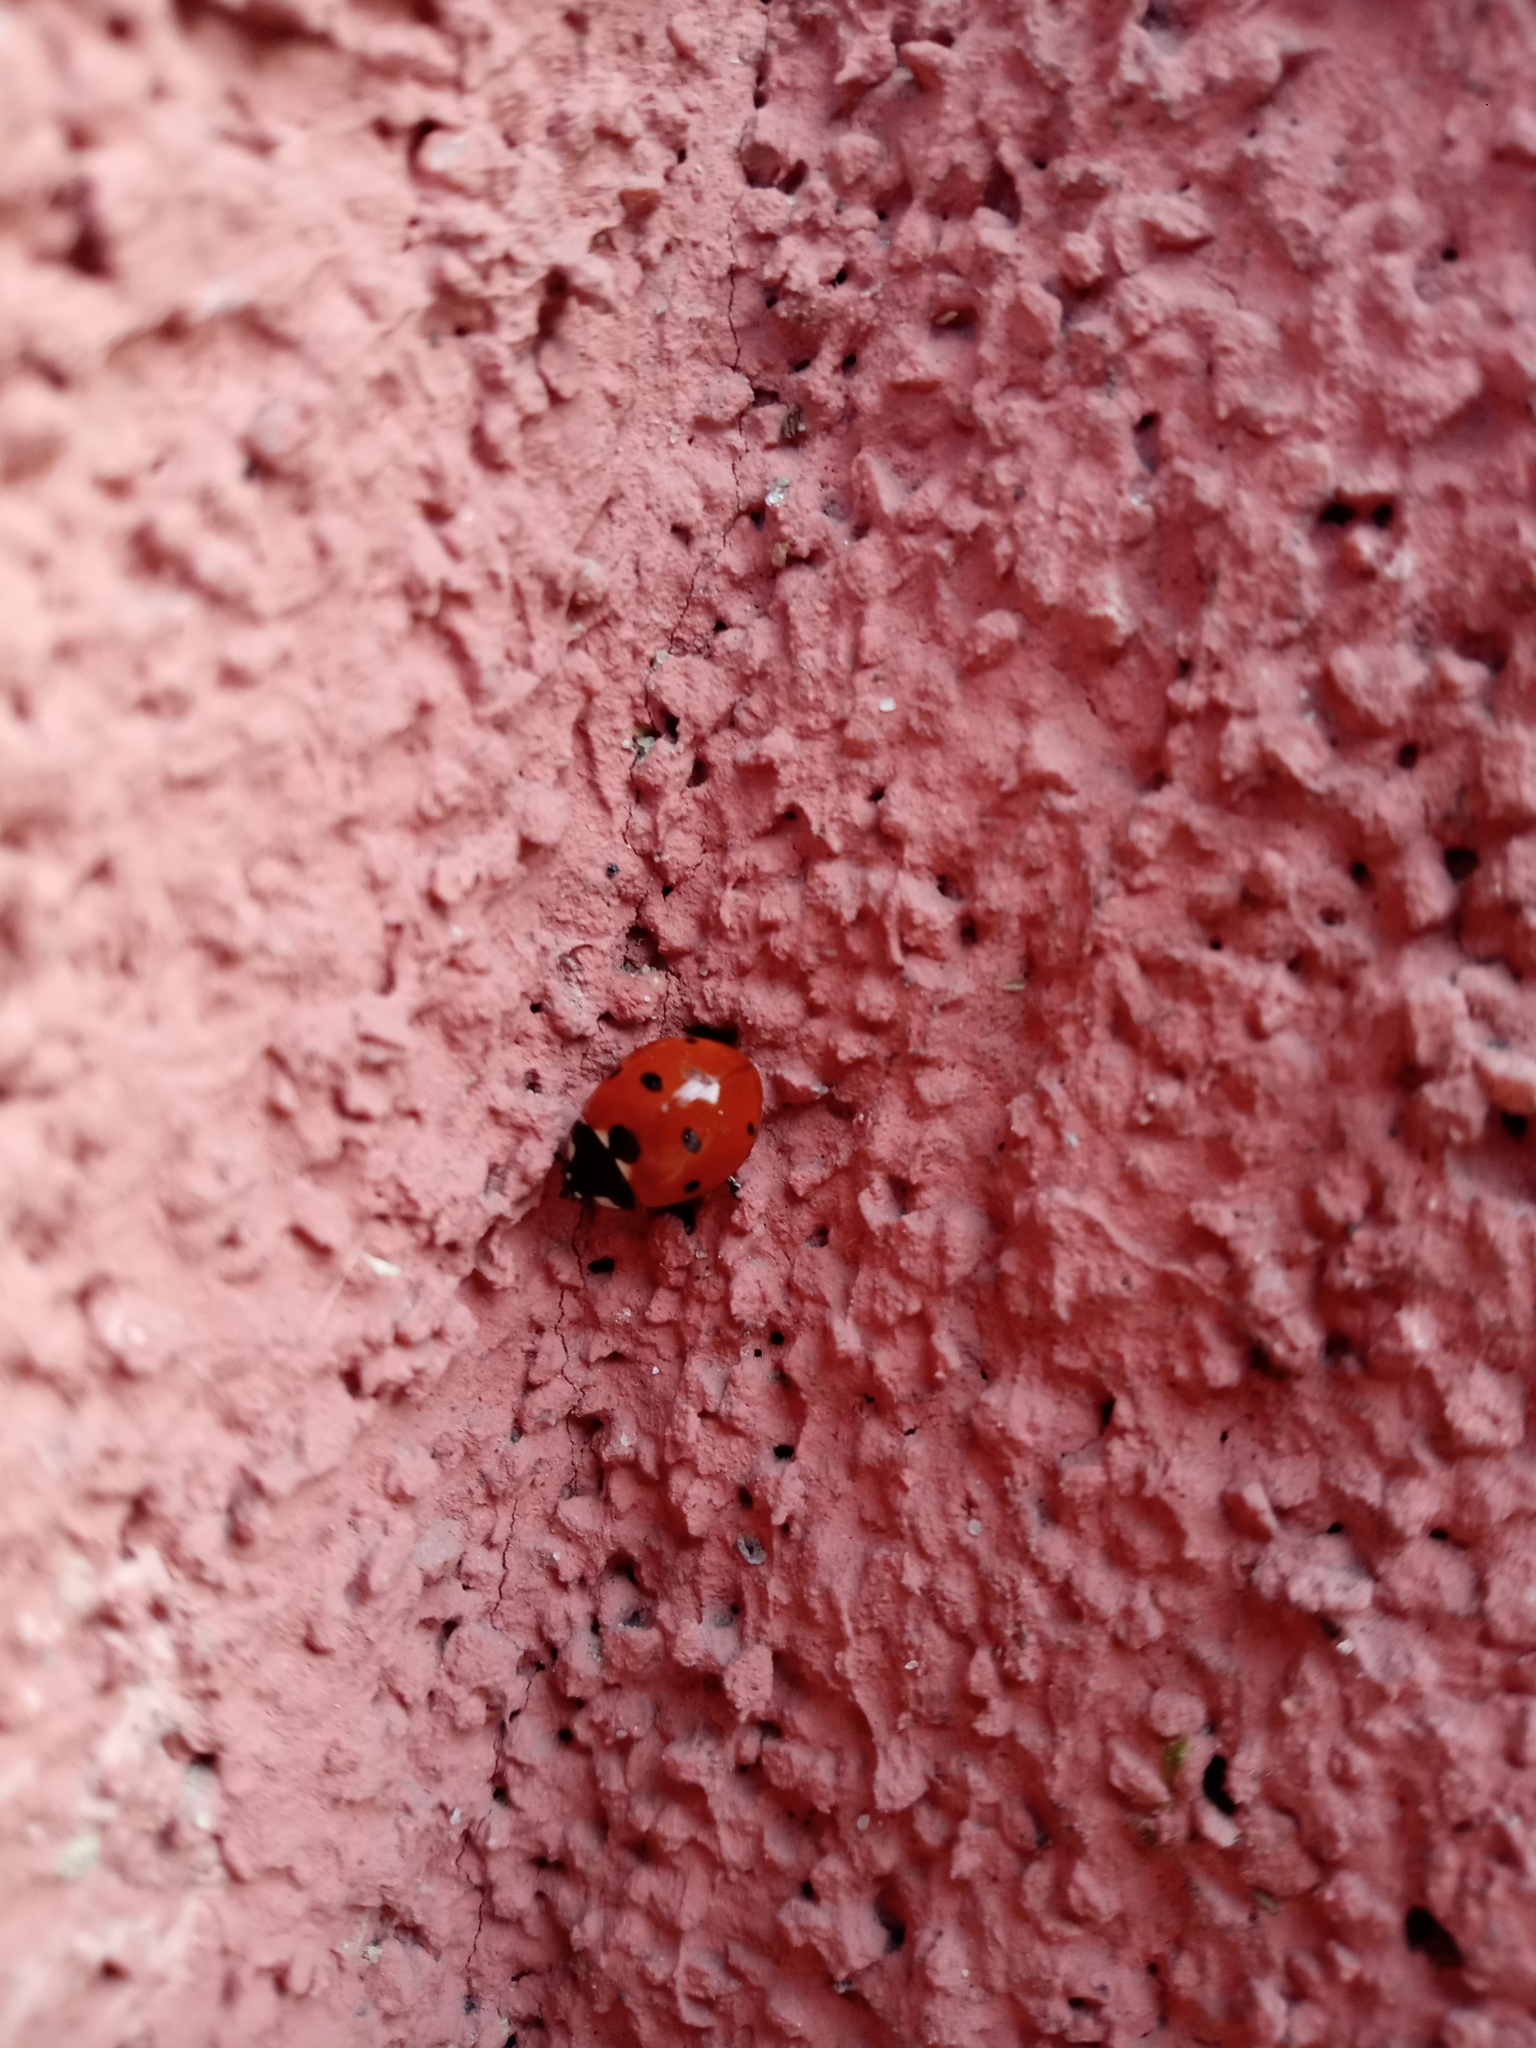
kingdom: Animalia
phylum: Arthropoda
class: Insecta
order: Coleoptera
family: Coccinellidae
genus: Coccinella
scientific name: Coccinella septempunctata
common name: Sevenspotted lady beetle
